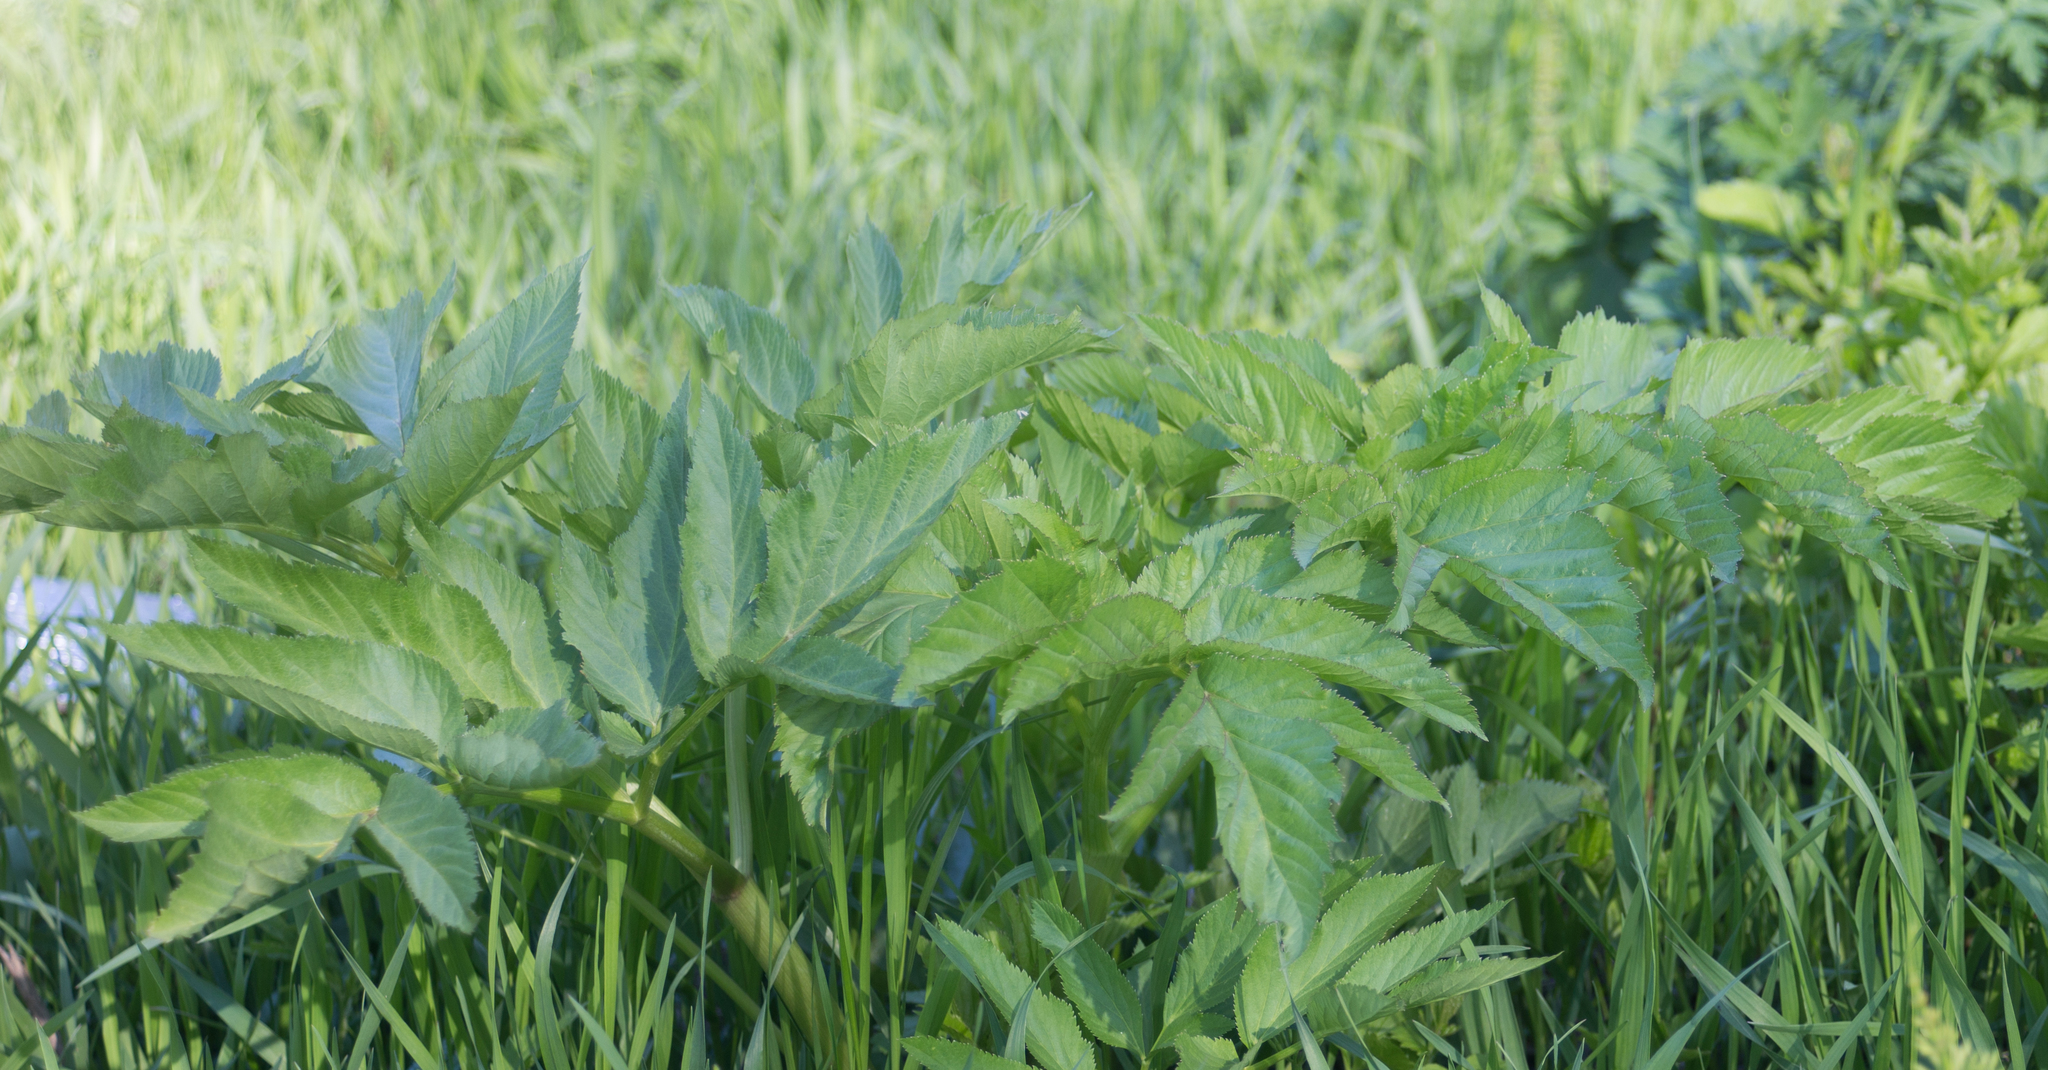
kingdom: Plantae
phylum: Tracheophyta
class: Magnoliopsida
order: Apiales
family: Apiaceae
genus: Angelica
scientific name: Angelica archangelica
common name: Garden angelica
